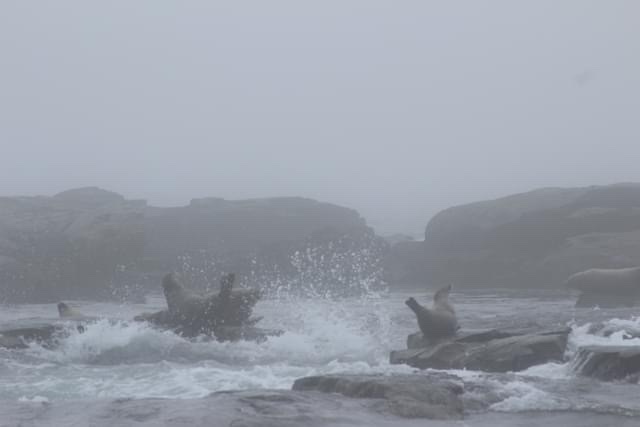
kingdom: Animalia
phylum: Chordata
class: Mammalia
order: Carnivora
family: Phocidae
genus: Phoca
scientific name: Phoca vitulina
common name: Harbor seal
